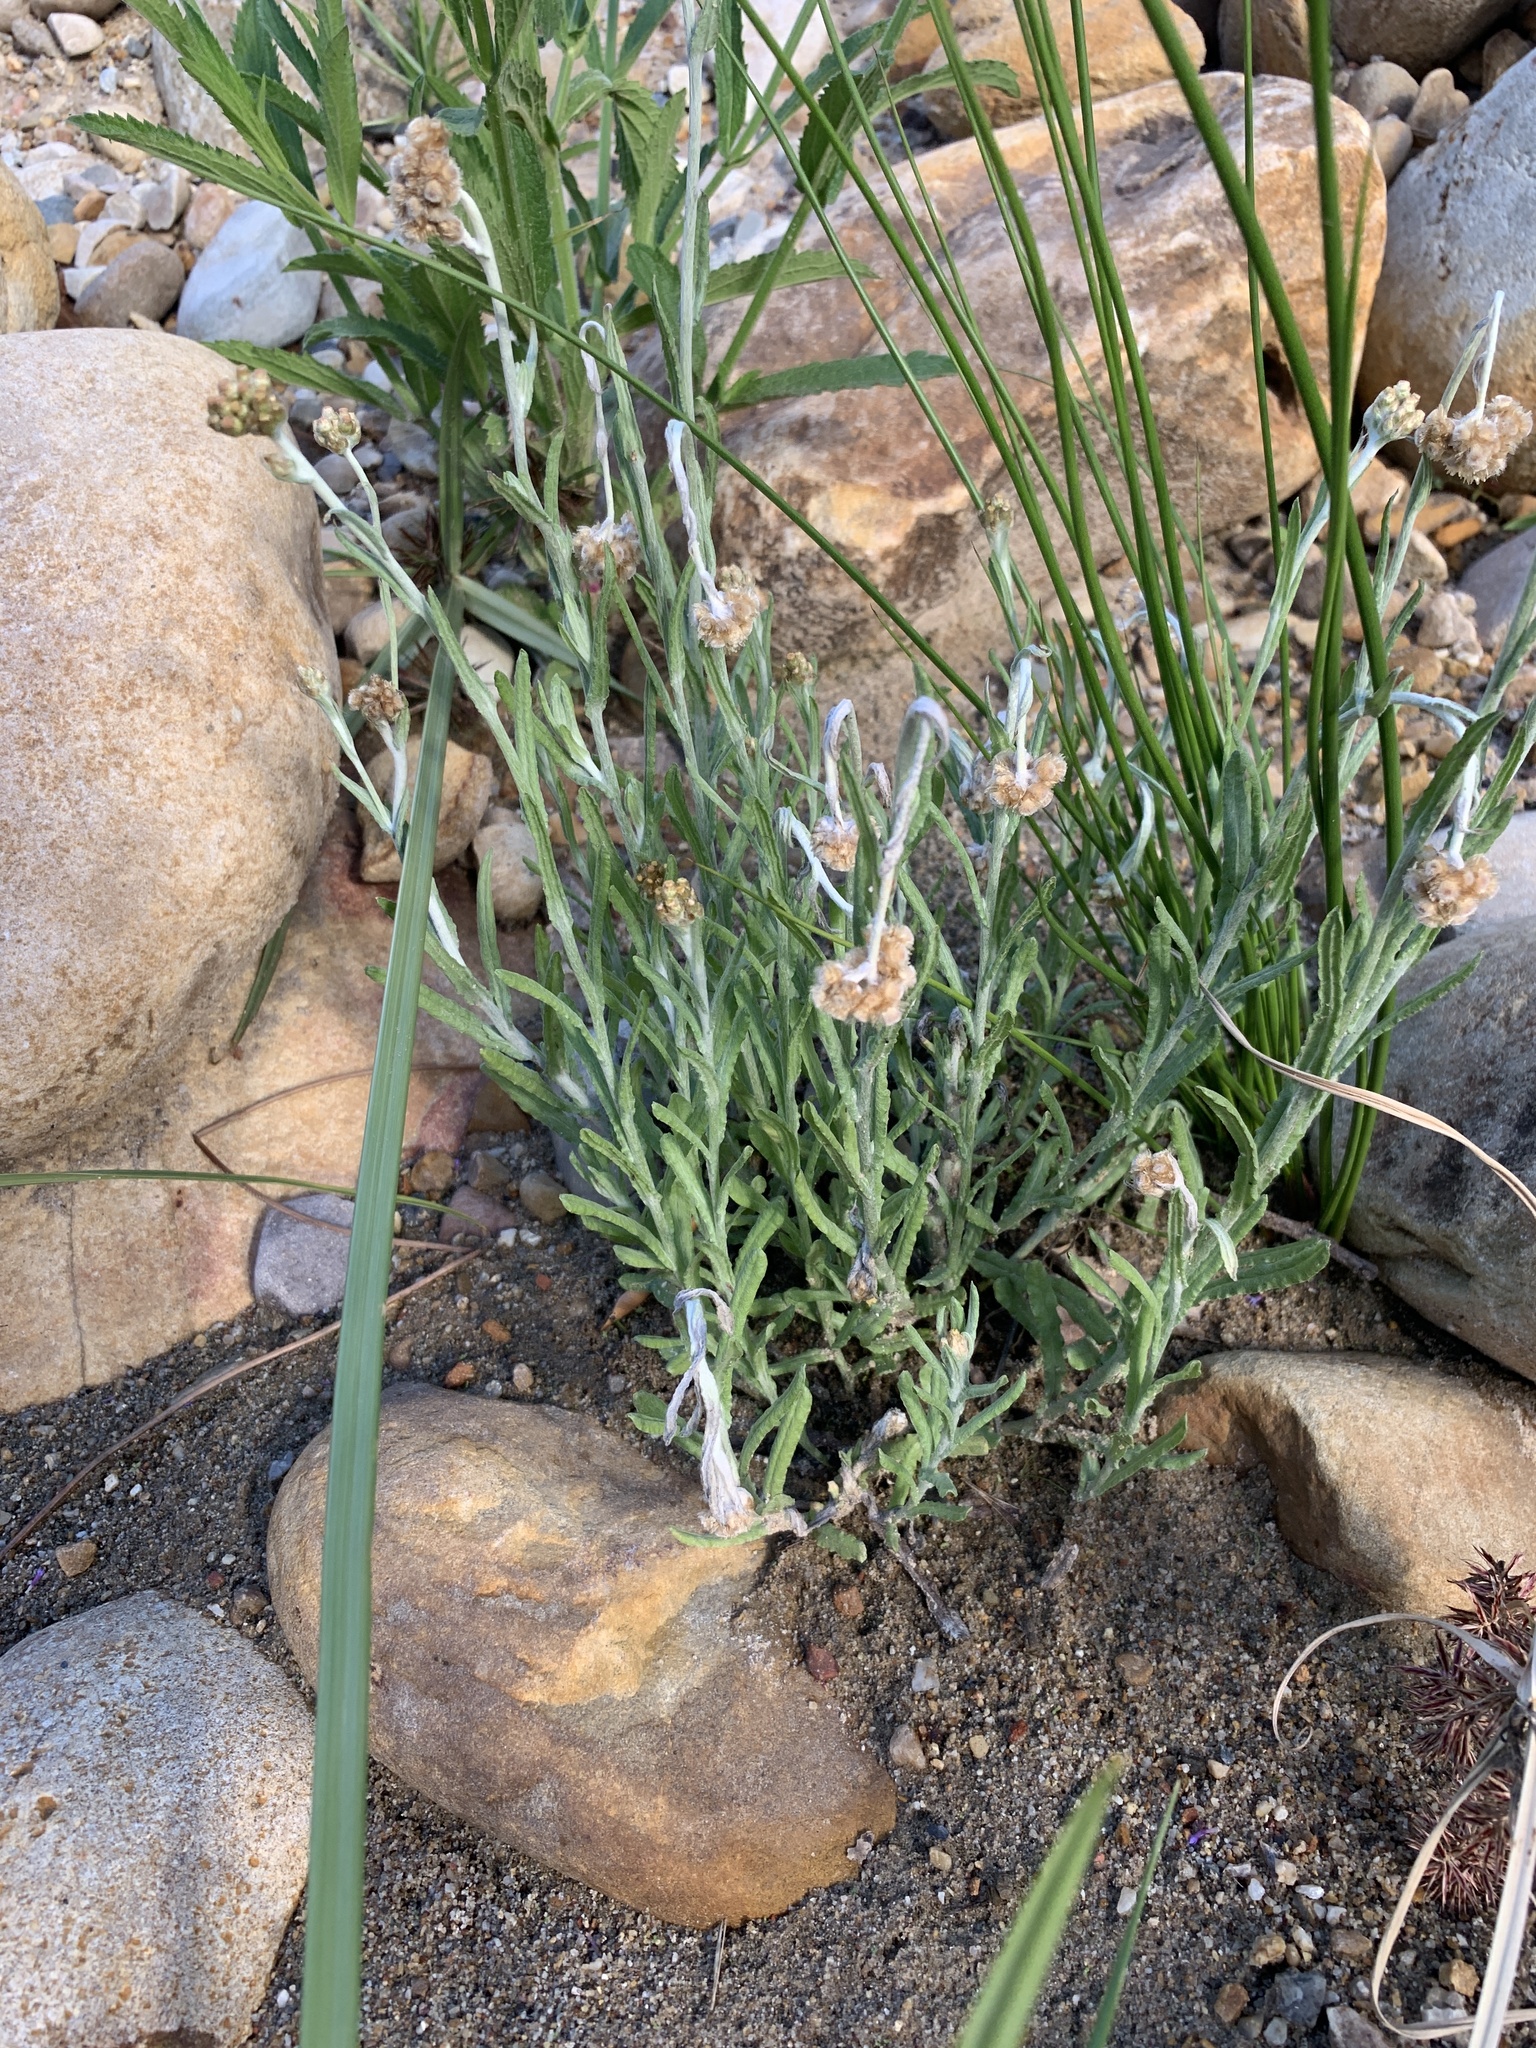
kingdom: Plantae
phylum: Tracheophyta
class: Magnoliopsida
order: Asterales
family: Asteraceae
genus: Helichrysum
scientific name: Helichrysum luteoalbum
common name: Daisy
